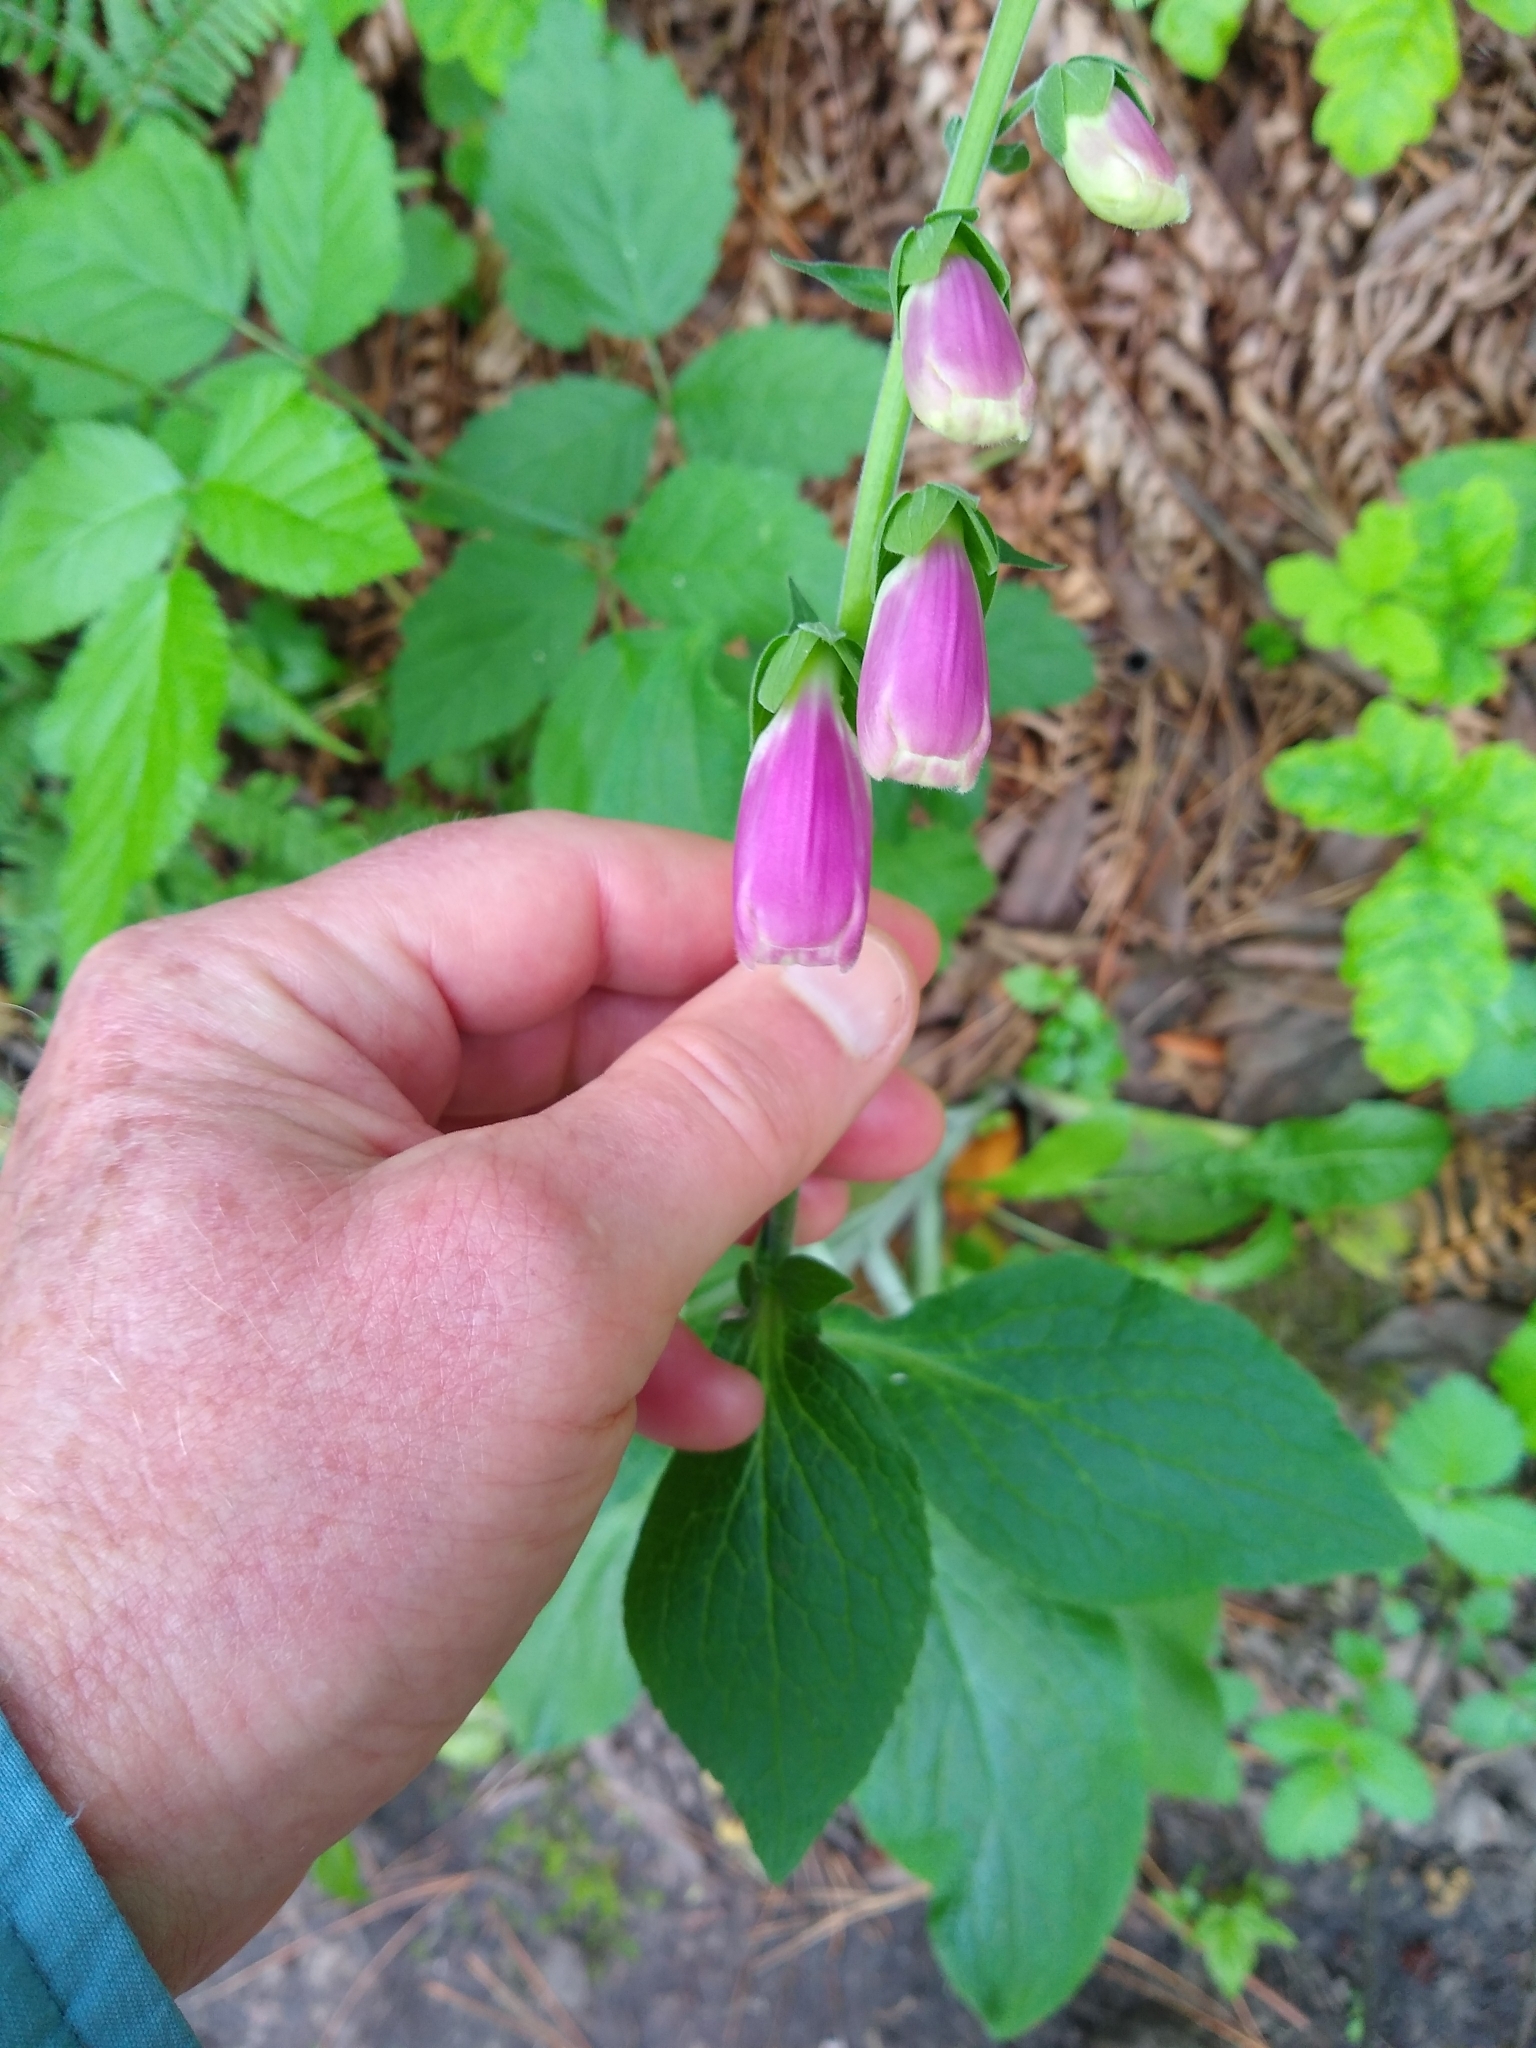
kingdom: Plantae
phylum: Tracheophyta
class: Magnoliopsida
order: Lamiales
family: Plantaginaceae
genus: Digitalis
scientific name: Digitalis purpurea
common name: Foxglove
